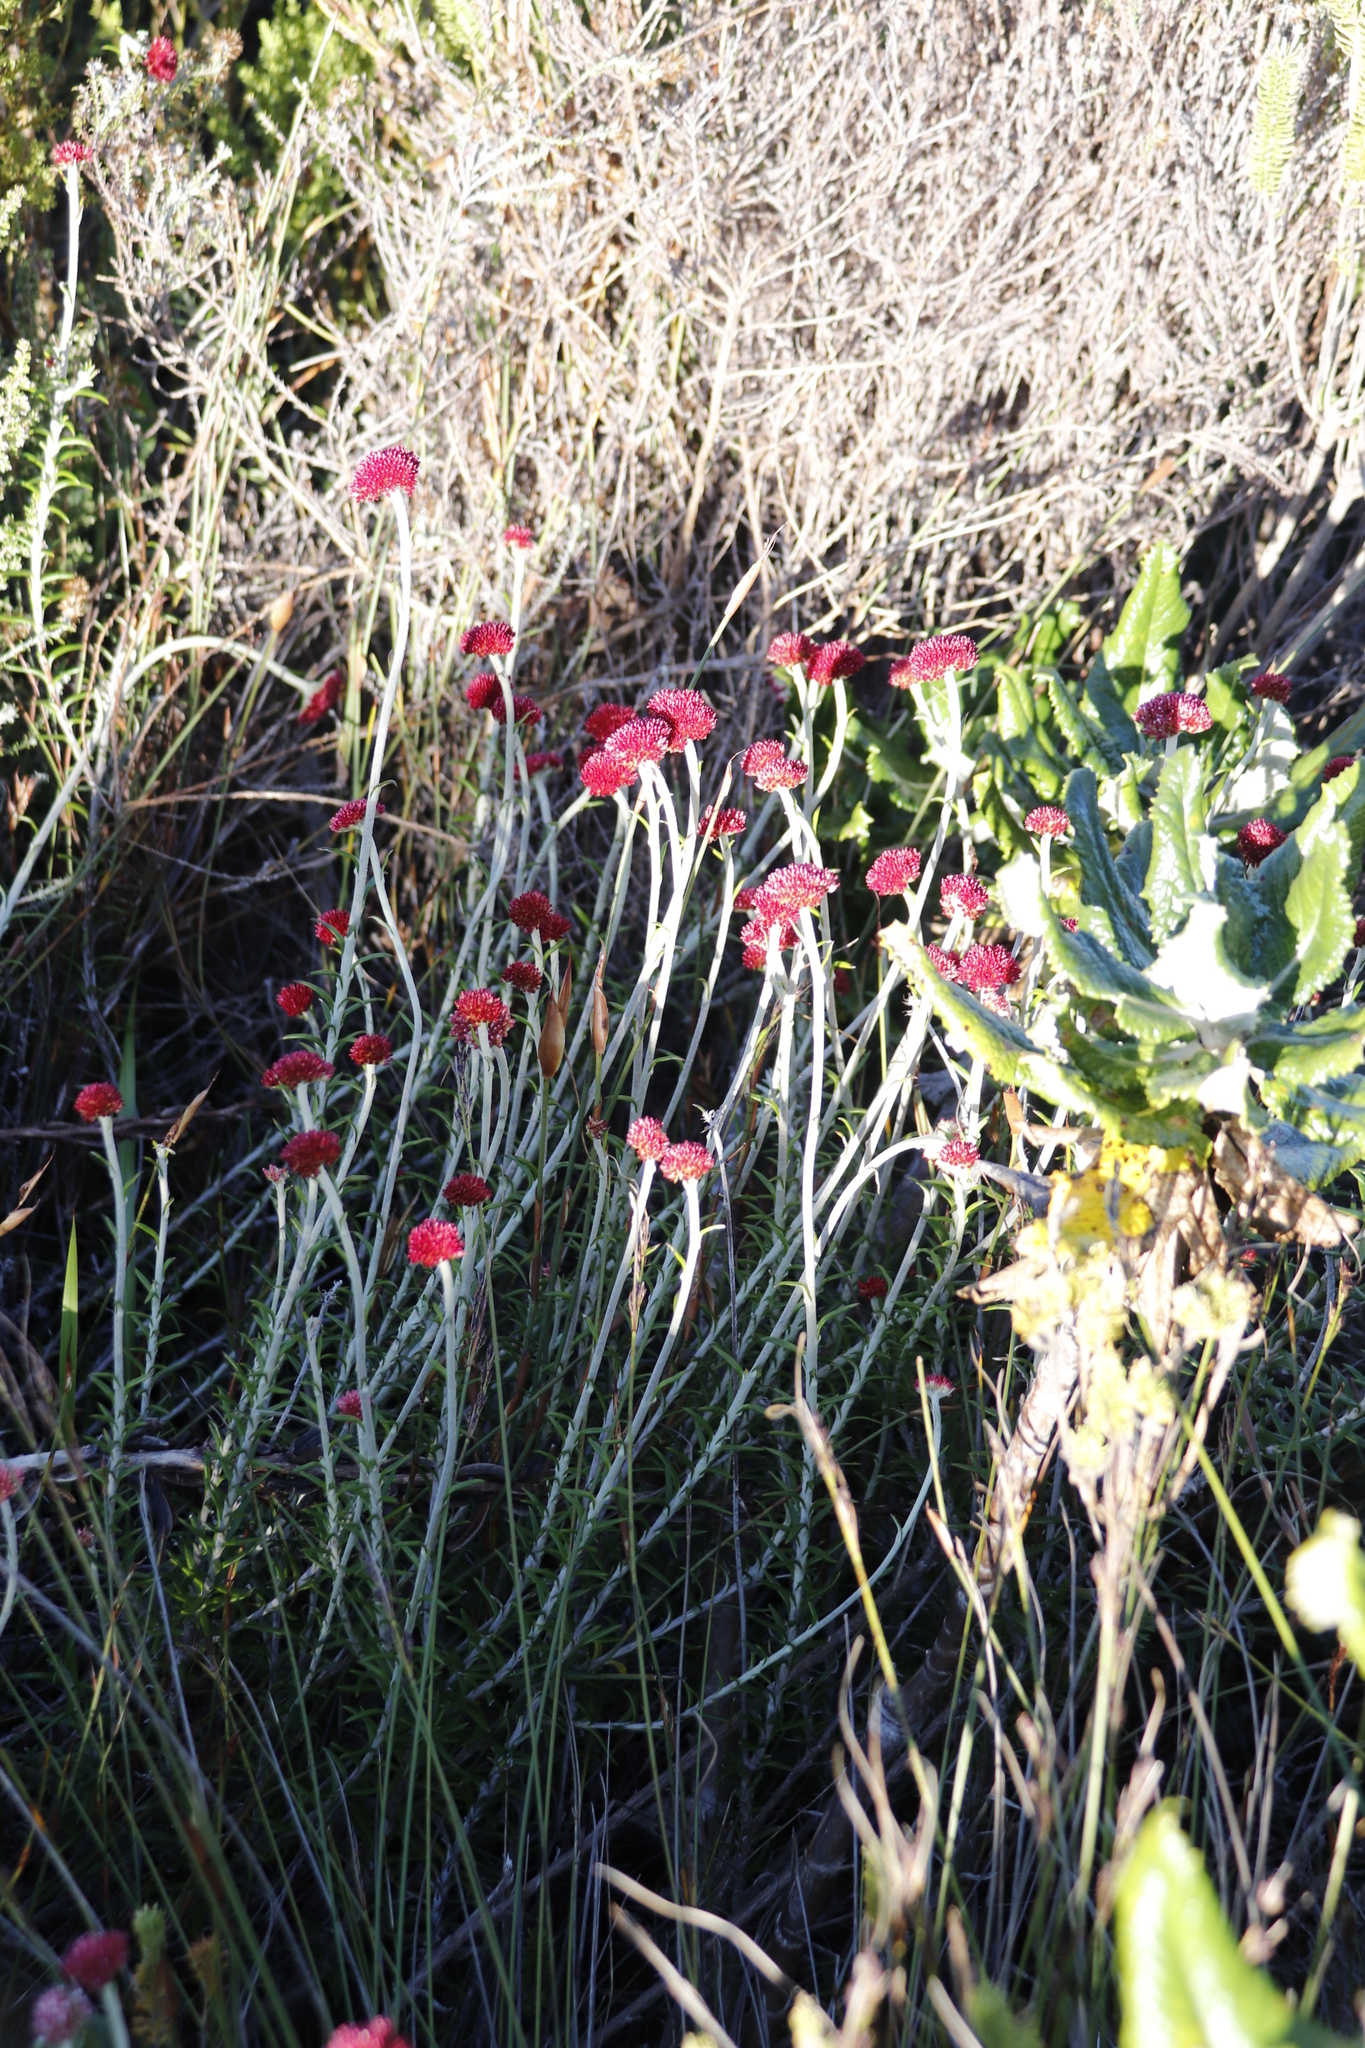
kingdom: Plantae
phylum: Tracheophyta
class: Magnoliopsida
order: Asterales
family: Asteraceae
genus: Anaxeton
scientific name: Anaxeton arborescens
